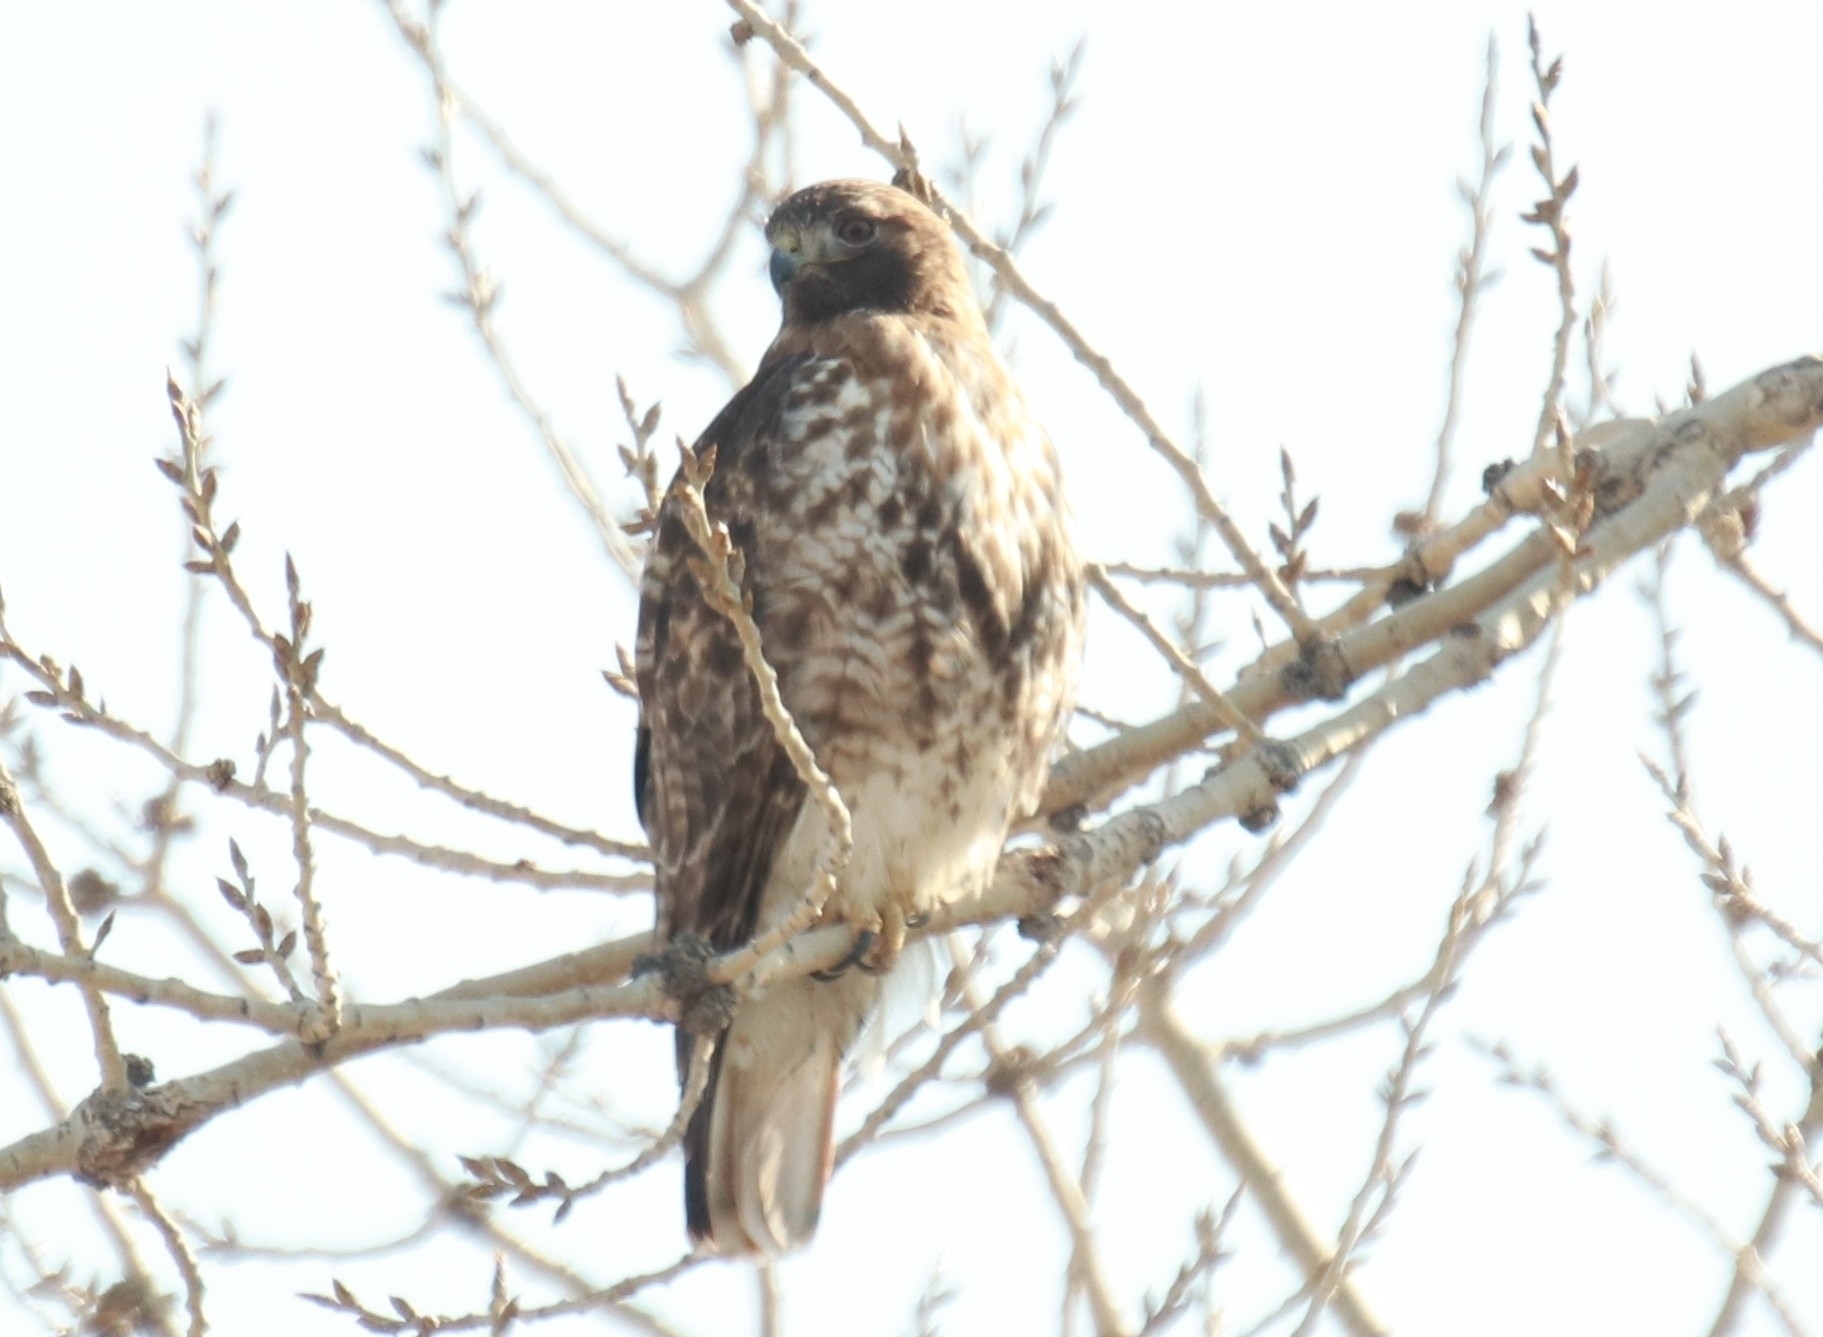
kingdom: Animalia
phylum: Chordata
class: Aves
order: Accipitriformes
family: Accipitridae
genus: Buteo
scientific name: Buteo jamaicensis
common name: Red-tailed hawk
